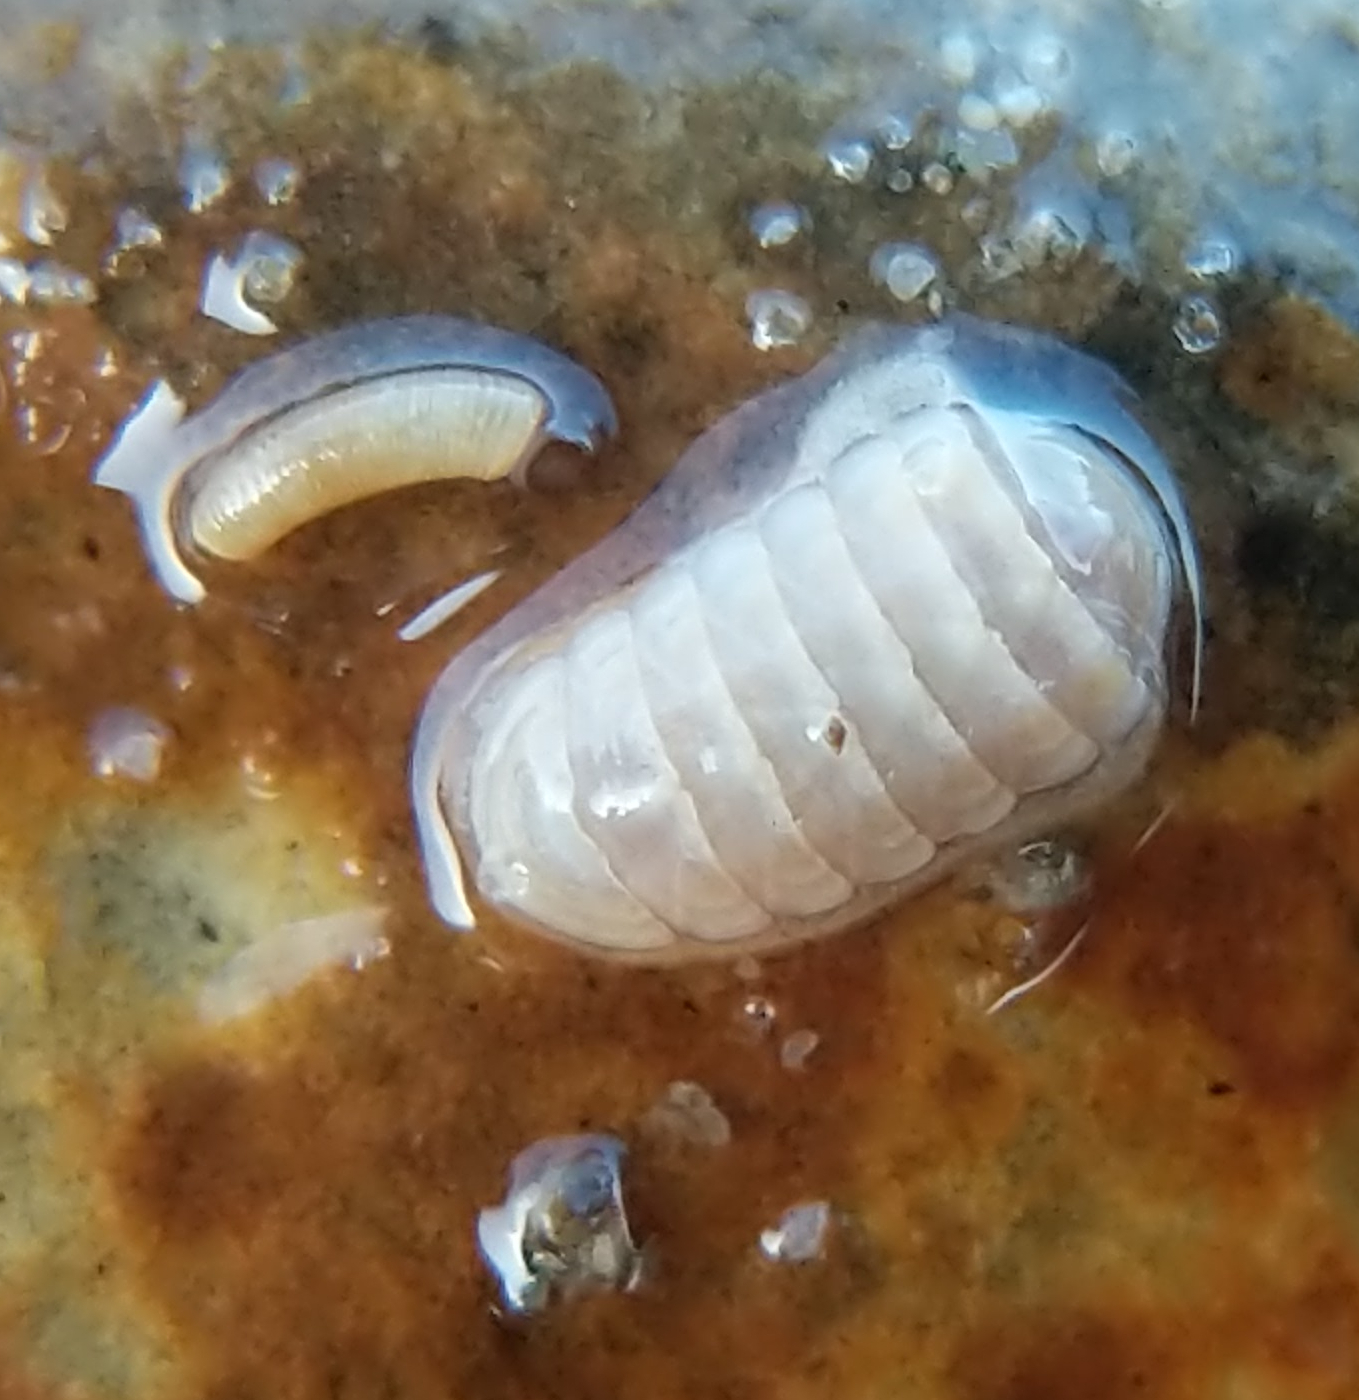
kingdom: Animalia
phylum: Mollusca
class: Polyplacophora
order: Lepidopleurida
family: Leptochitonidae
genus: Leptochiton
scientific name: Leptochiton rugatus
